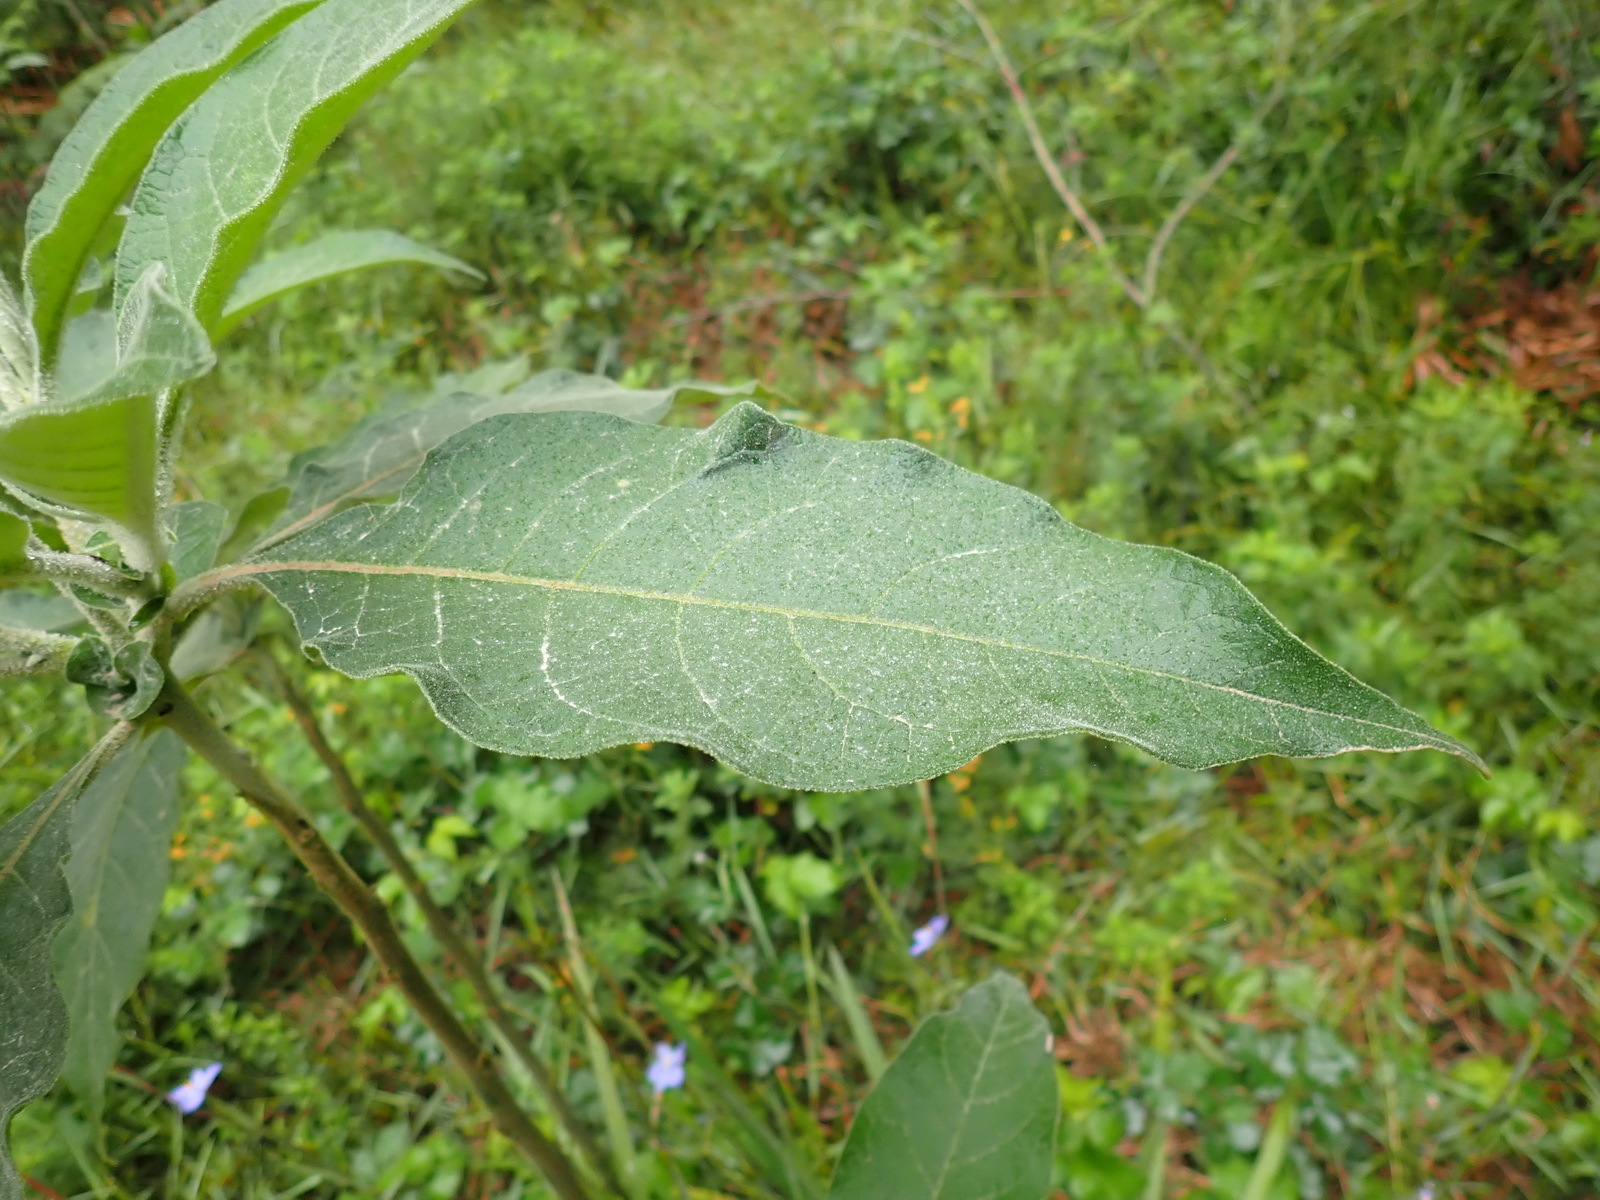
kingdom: Plantae
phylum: Tracheophyta
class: Magnoliopsida
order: Solanales
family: Solanaceae
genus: Solanum
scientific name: Solanum mauritianum
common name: Earleaf nightshade
